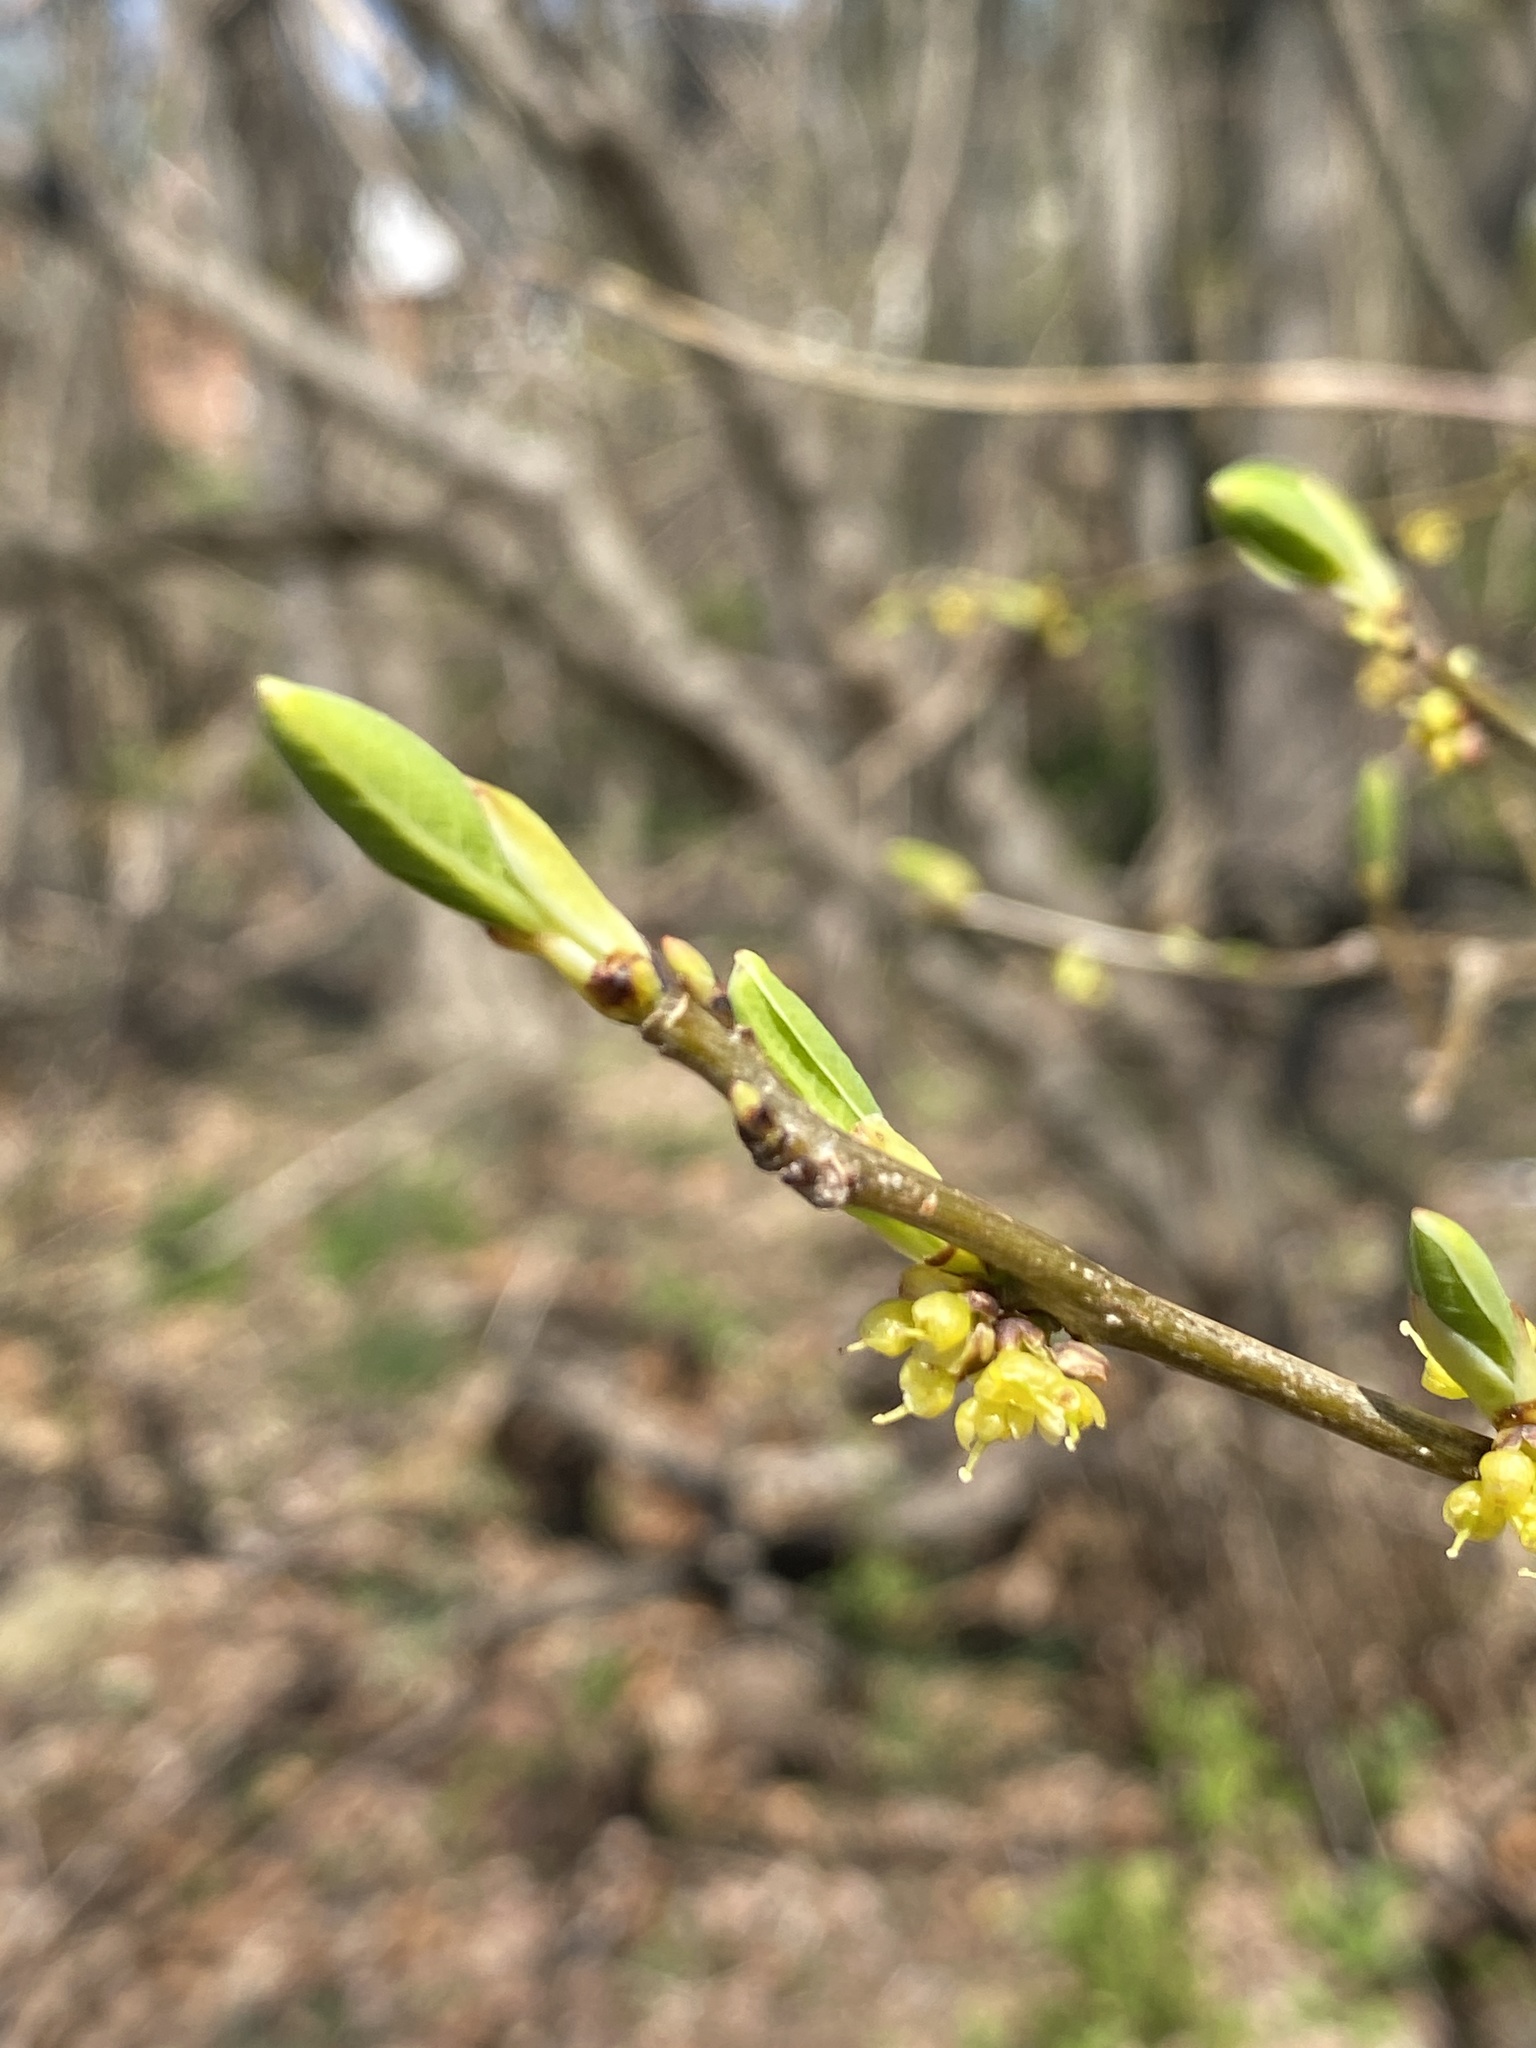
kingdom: Plantae
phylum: Tracheophyta
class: Magnoliopsida
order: Laurales
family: Lauraceae
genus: Lindera
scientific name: Lindera benzoin
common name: Spicebush
